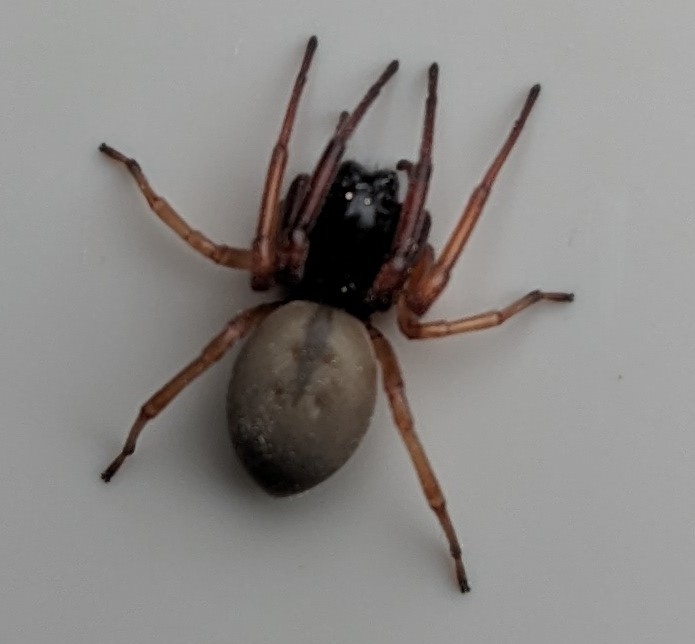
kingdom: Animalia
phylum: Arthropoda
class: Arachnida
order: Araneae
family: Trachelidae
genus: Trachelas
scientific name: Trachelas tranquillus
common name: Broad-faced sac spider
